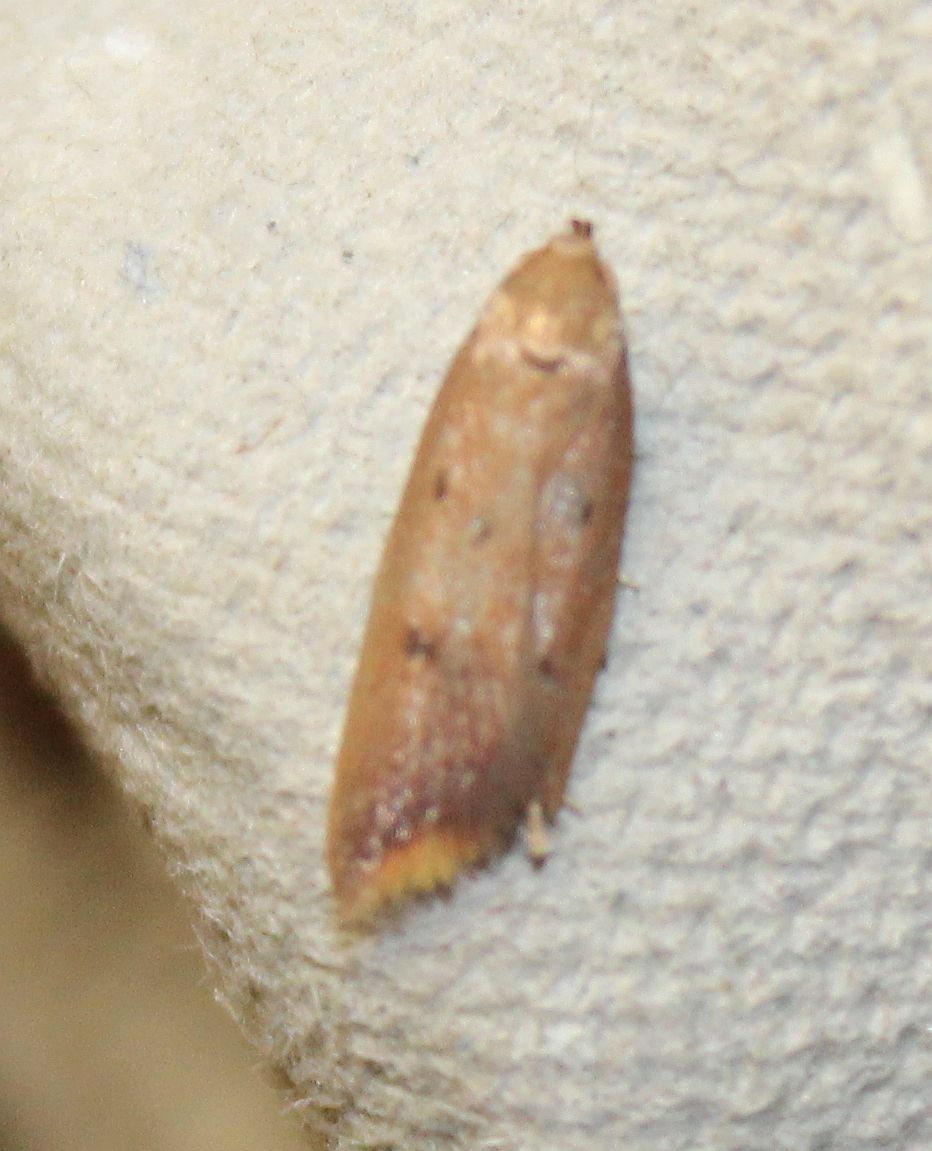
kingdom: Animalia
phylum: Arthropoda
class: Insecta
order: Lepidoptera
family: Oecophoridae
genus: Tachystola
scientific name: Tachystola acroxantha
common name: Ruddy streak
